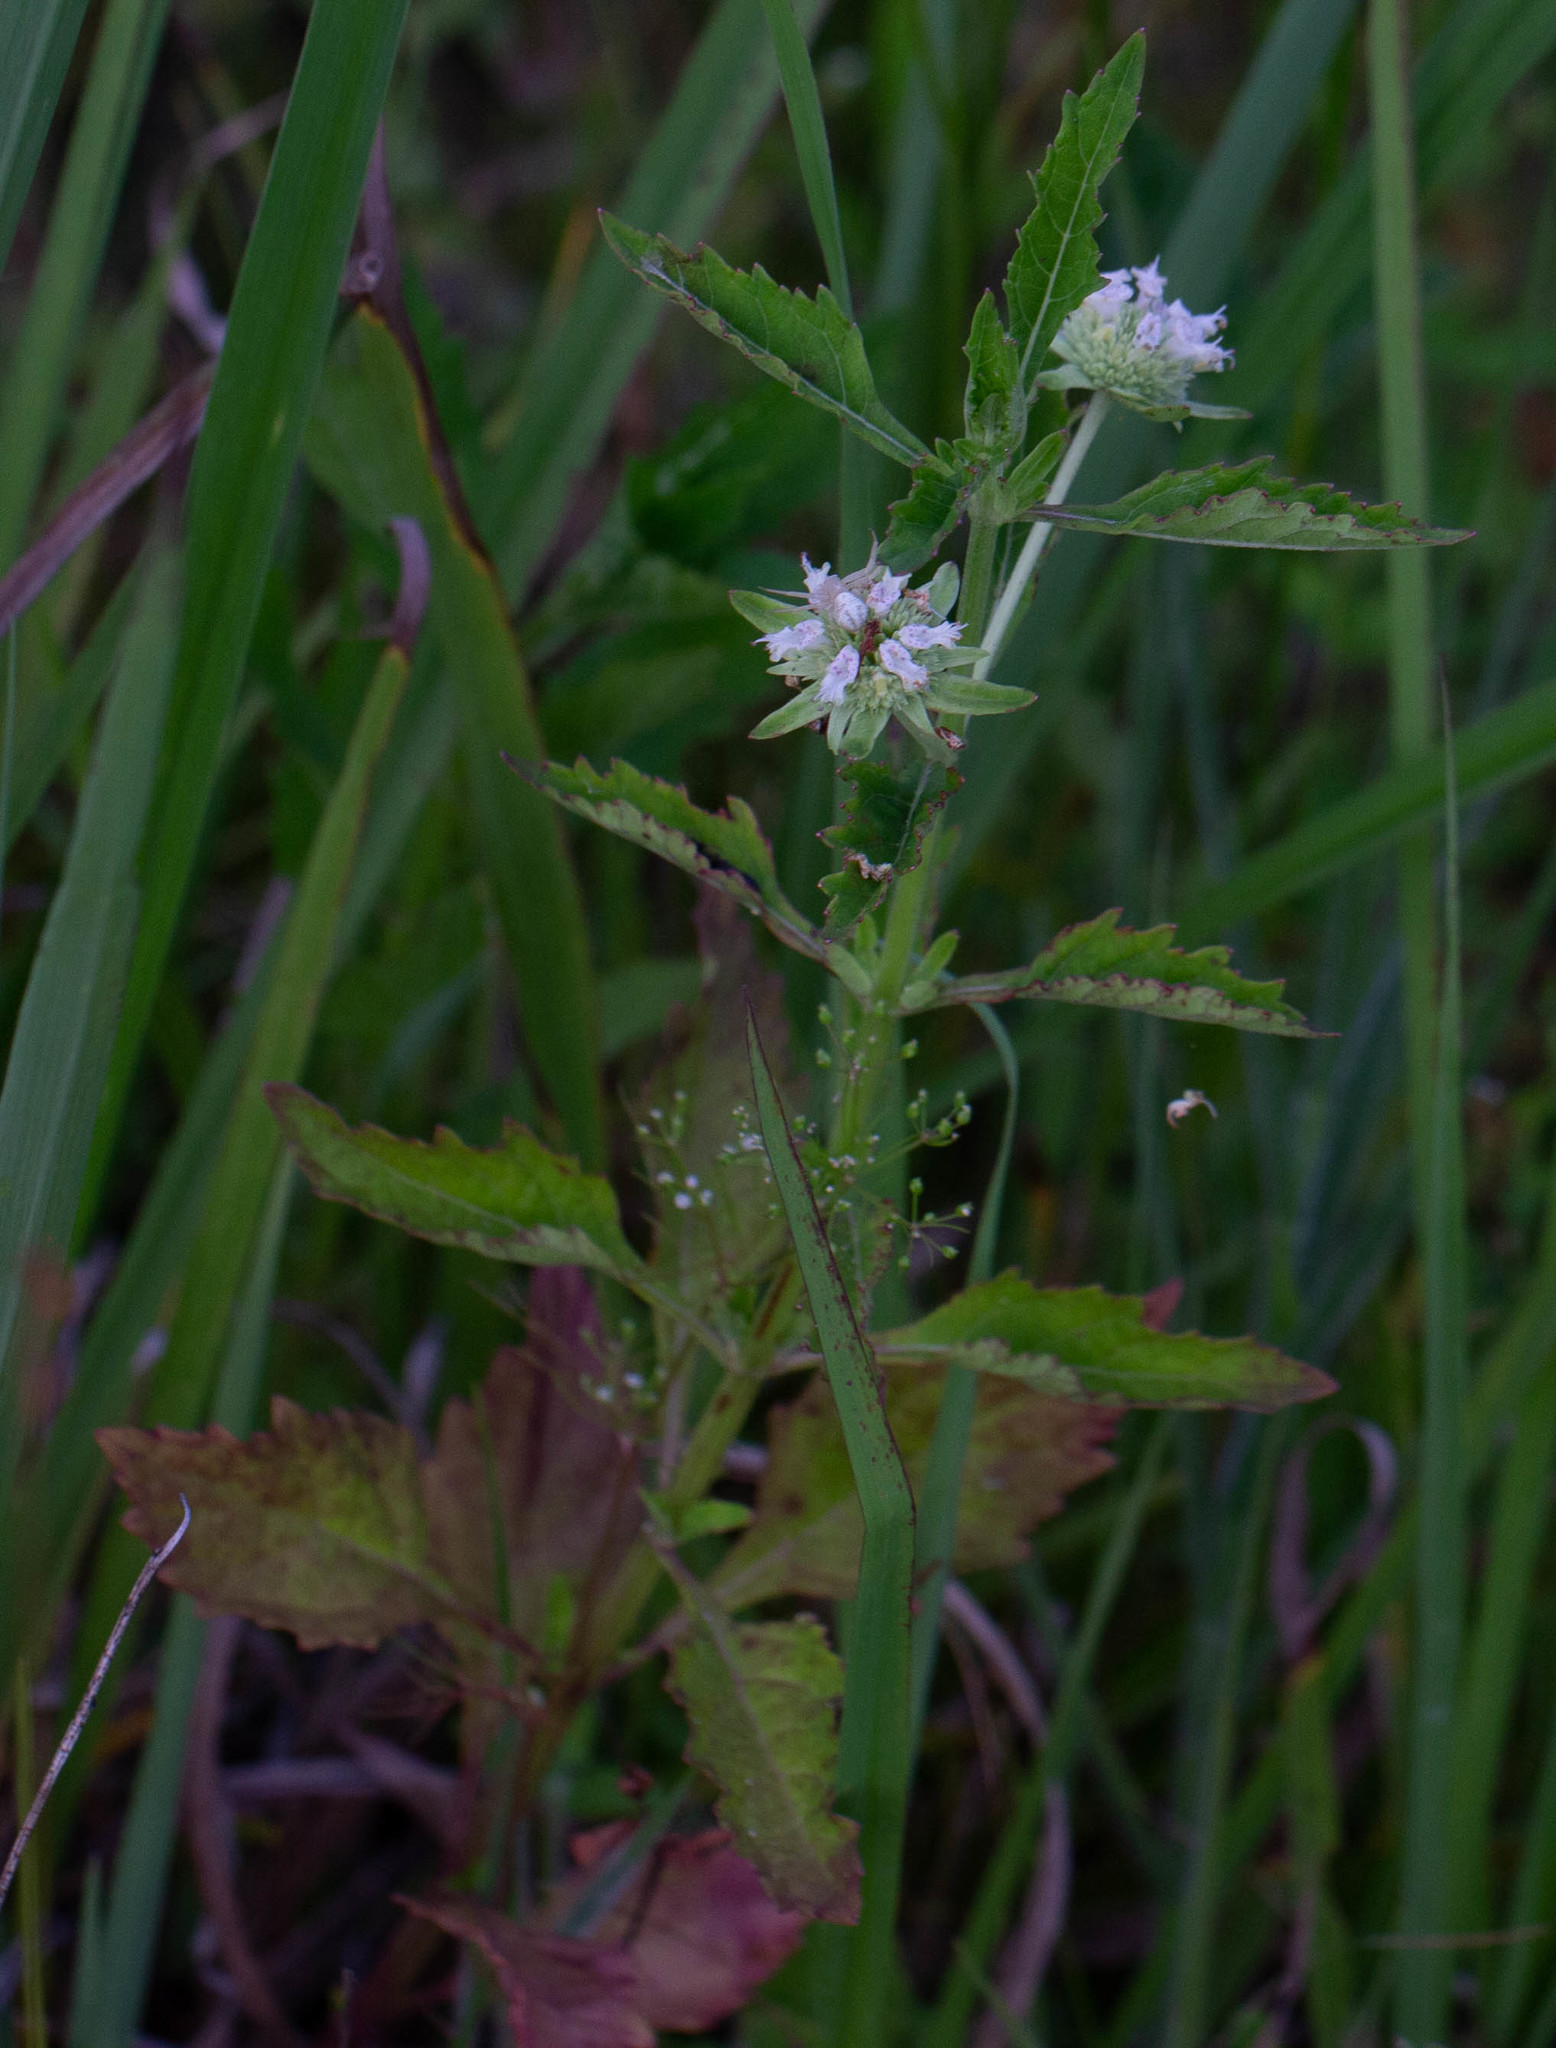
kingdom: Plantae
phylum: Tracheophyta
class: Magnoliopsida
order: Lamiales
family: Lamiaceae
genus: Hyptis
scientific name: Hyptis alata
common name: Cluster bush-mint
